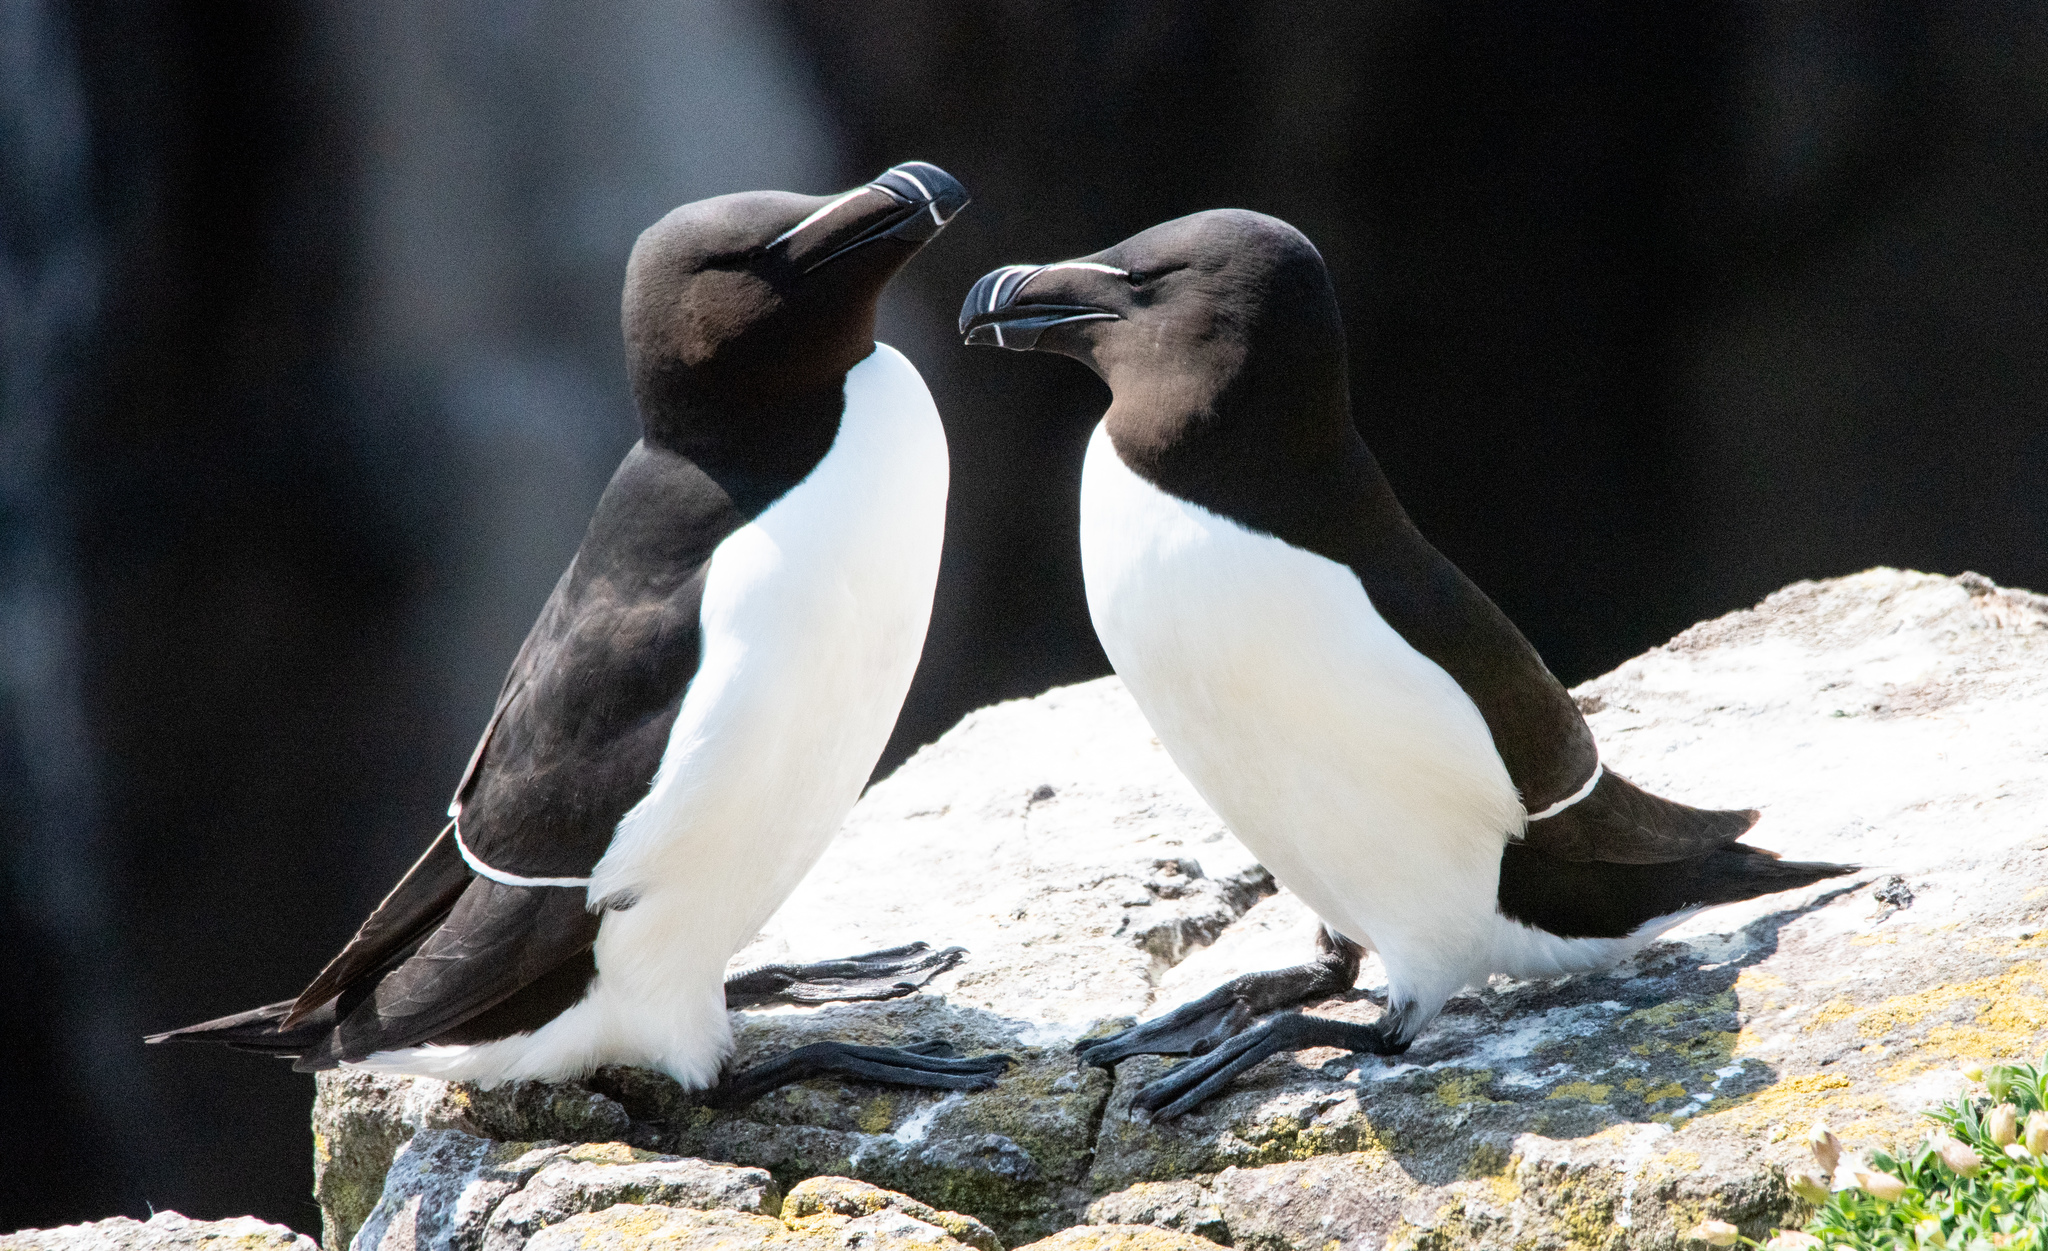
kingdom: Animalia
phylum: Chordata
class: Aves
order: Charadriiformes
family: Alcidae
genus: Alca
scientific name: Alca torda
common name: Razorbill
